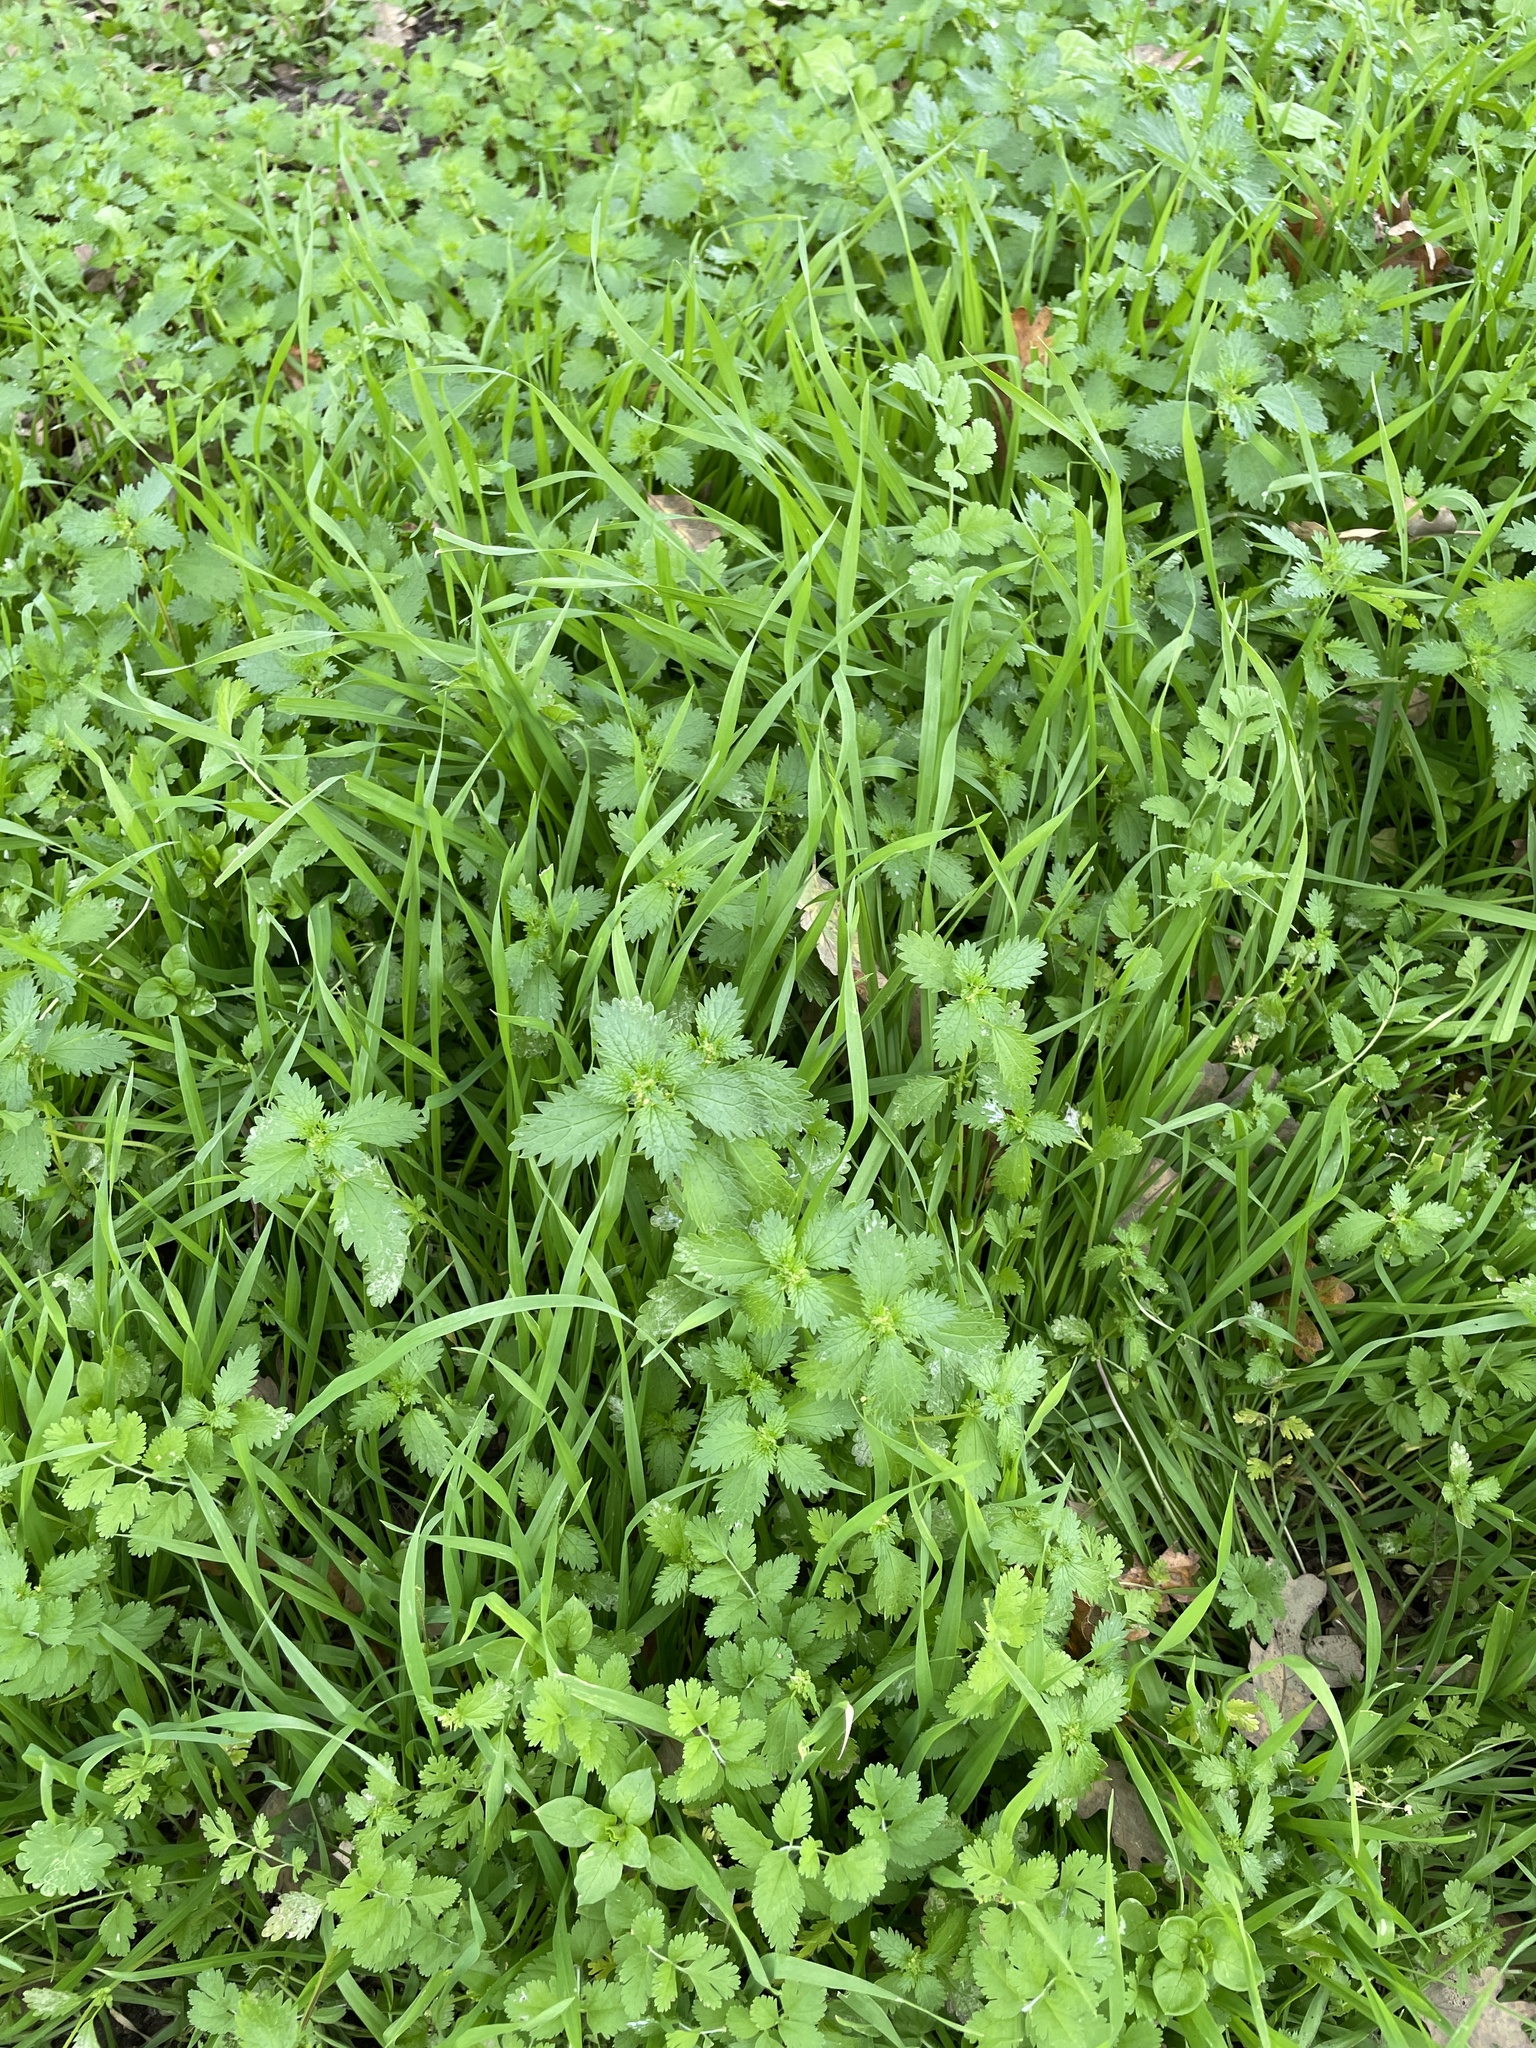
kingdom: Plantae
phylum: Tracheophyta
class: Magnoliopsida
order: Rosales
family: Urticaceae
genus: Urtica
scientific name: Urtica urens
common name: Dwarf nettle
